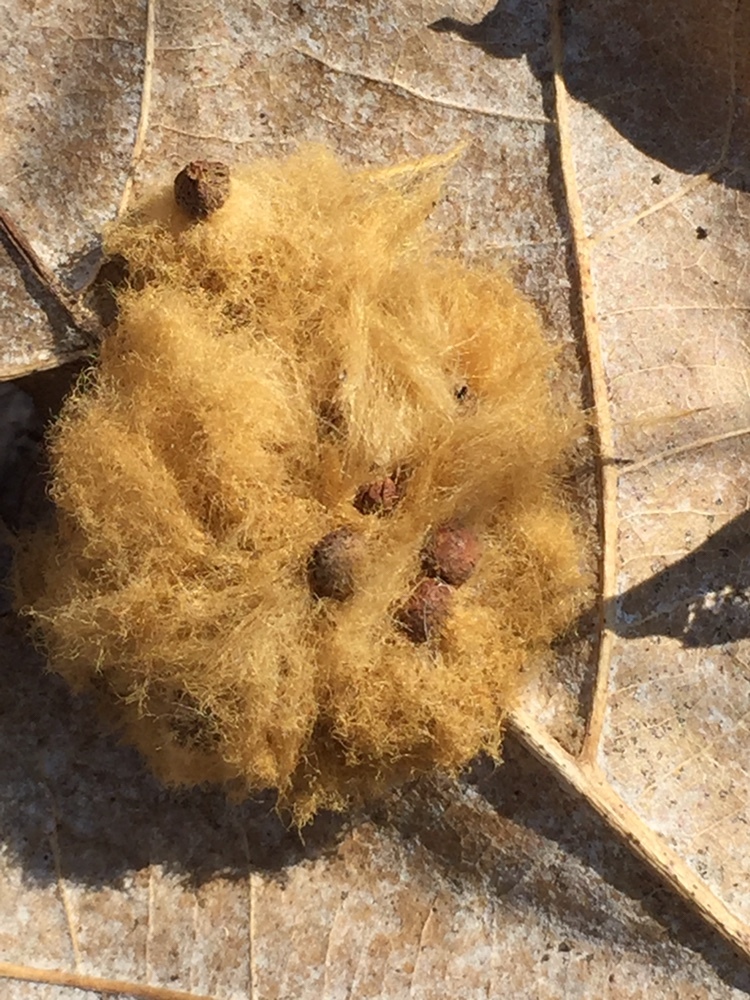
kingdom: Animalia
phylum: Arthropoda
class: Insecta
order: Hymenoptera
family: Cynipidae
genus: Callirhytis
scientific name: Callirhytis
